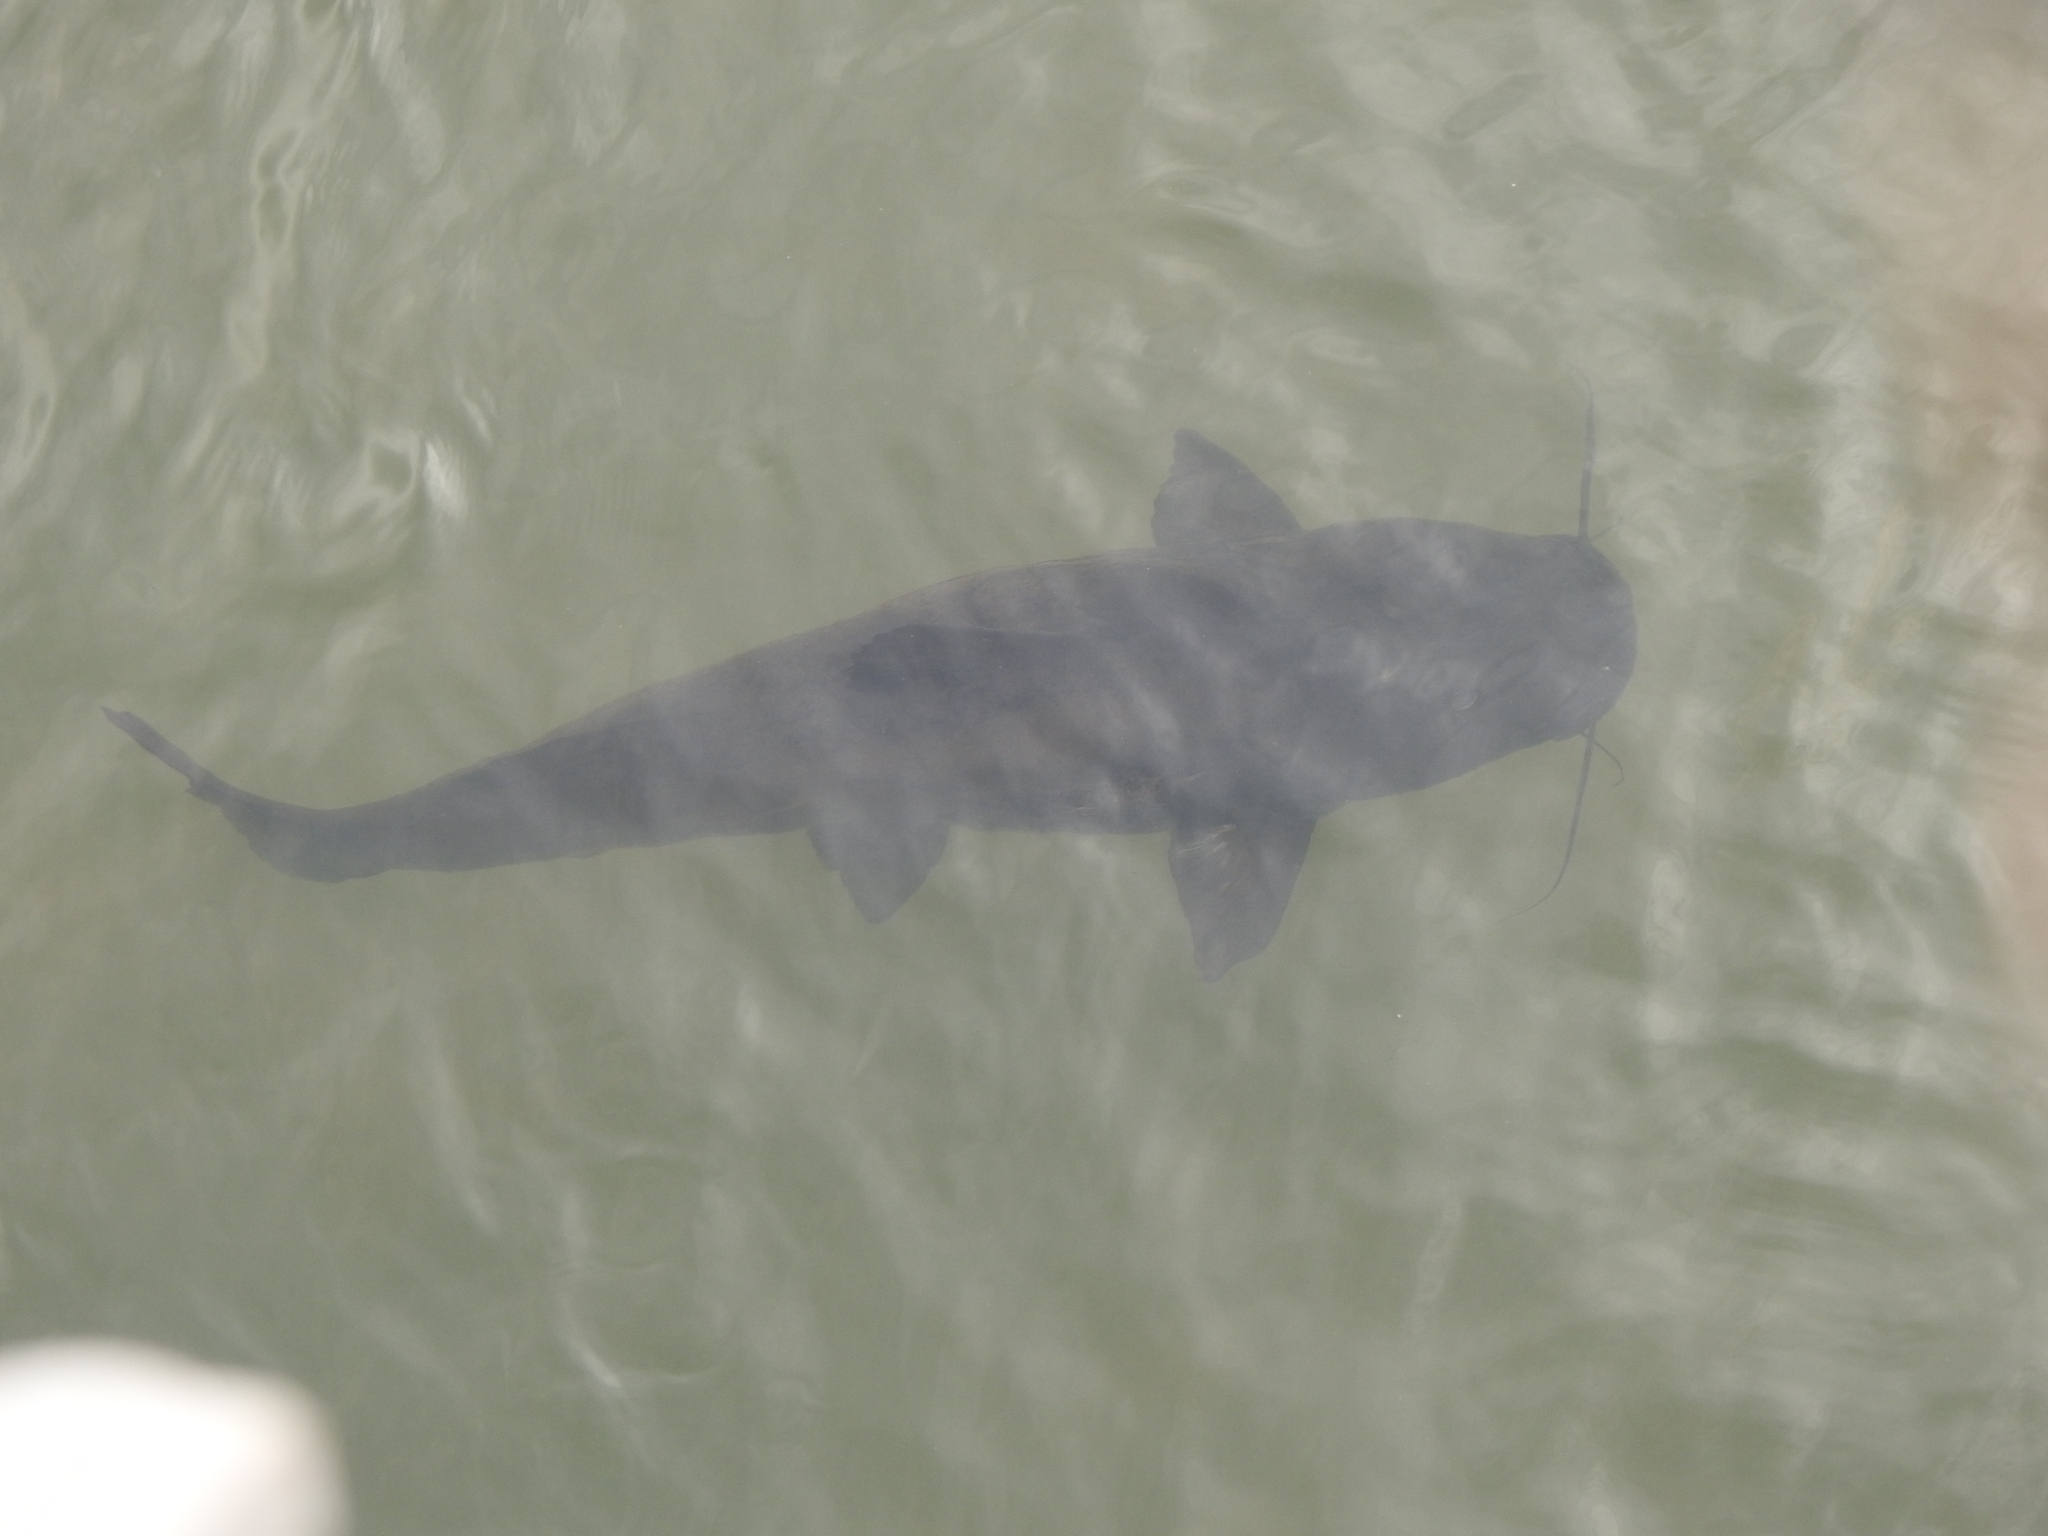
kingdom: Animalia
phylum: Chordata
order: Siluriformes
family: Pimelodidae
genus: Steindachneridion
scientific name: Steindachneridion melanodermatum
